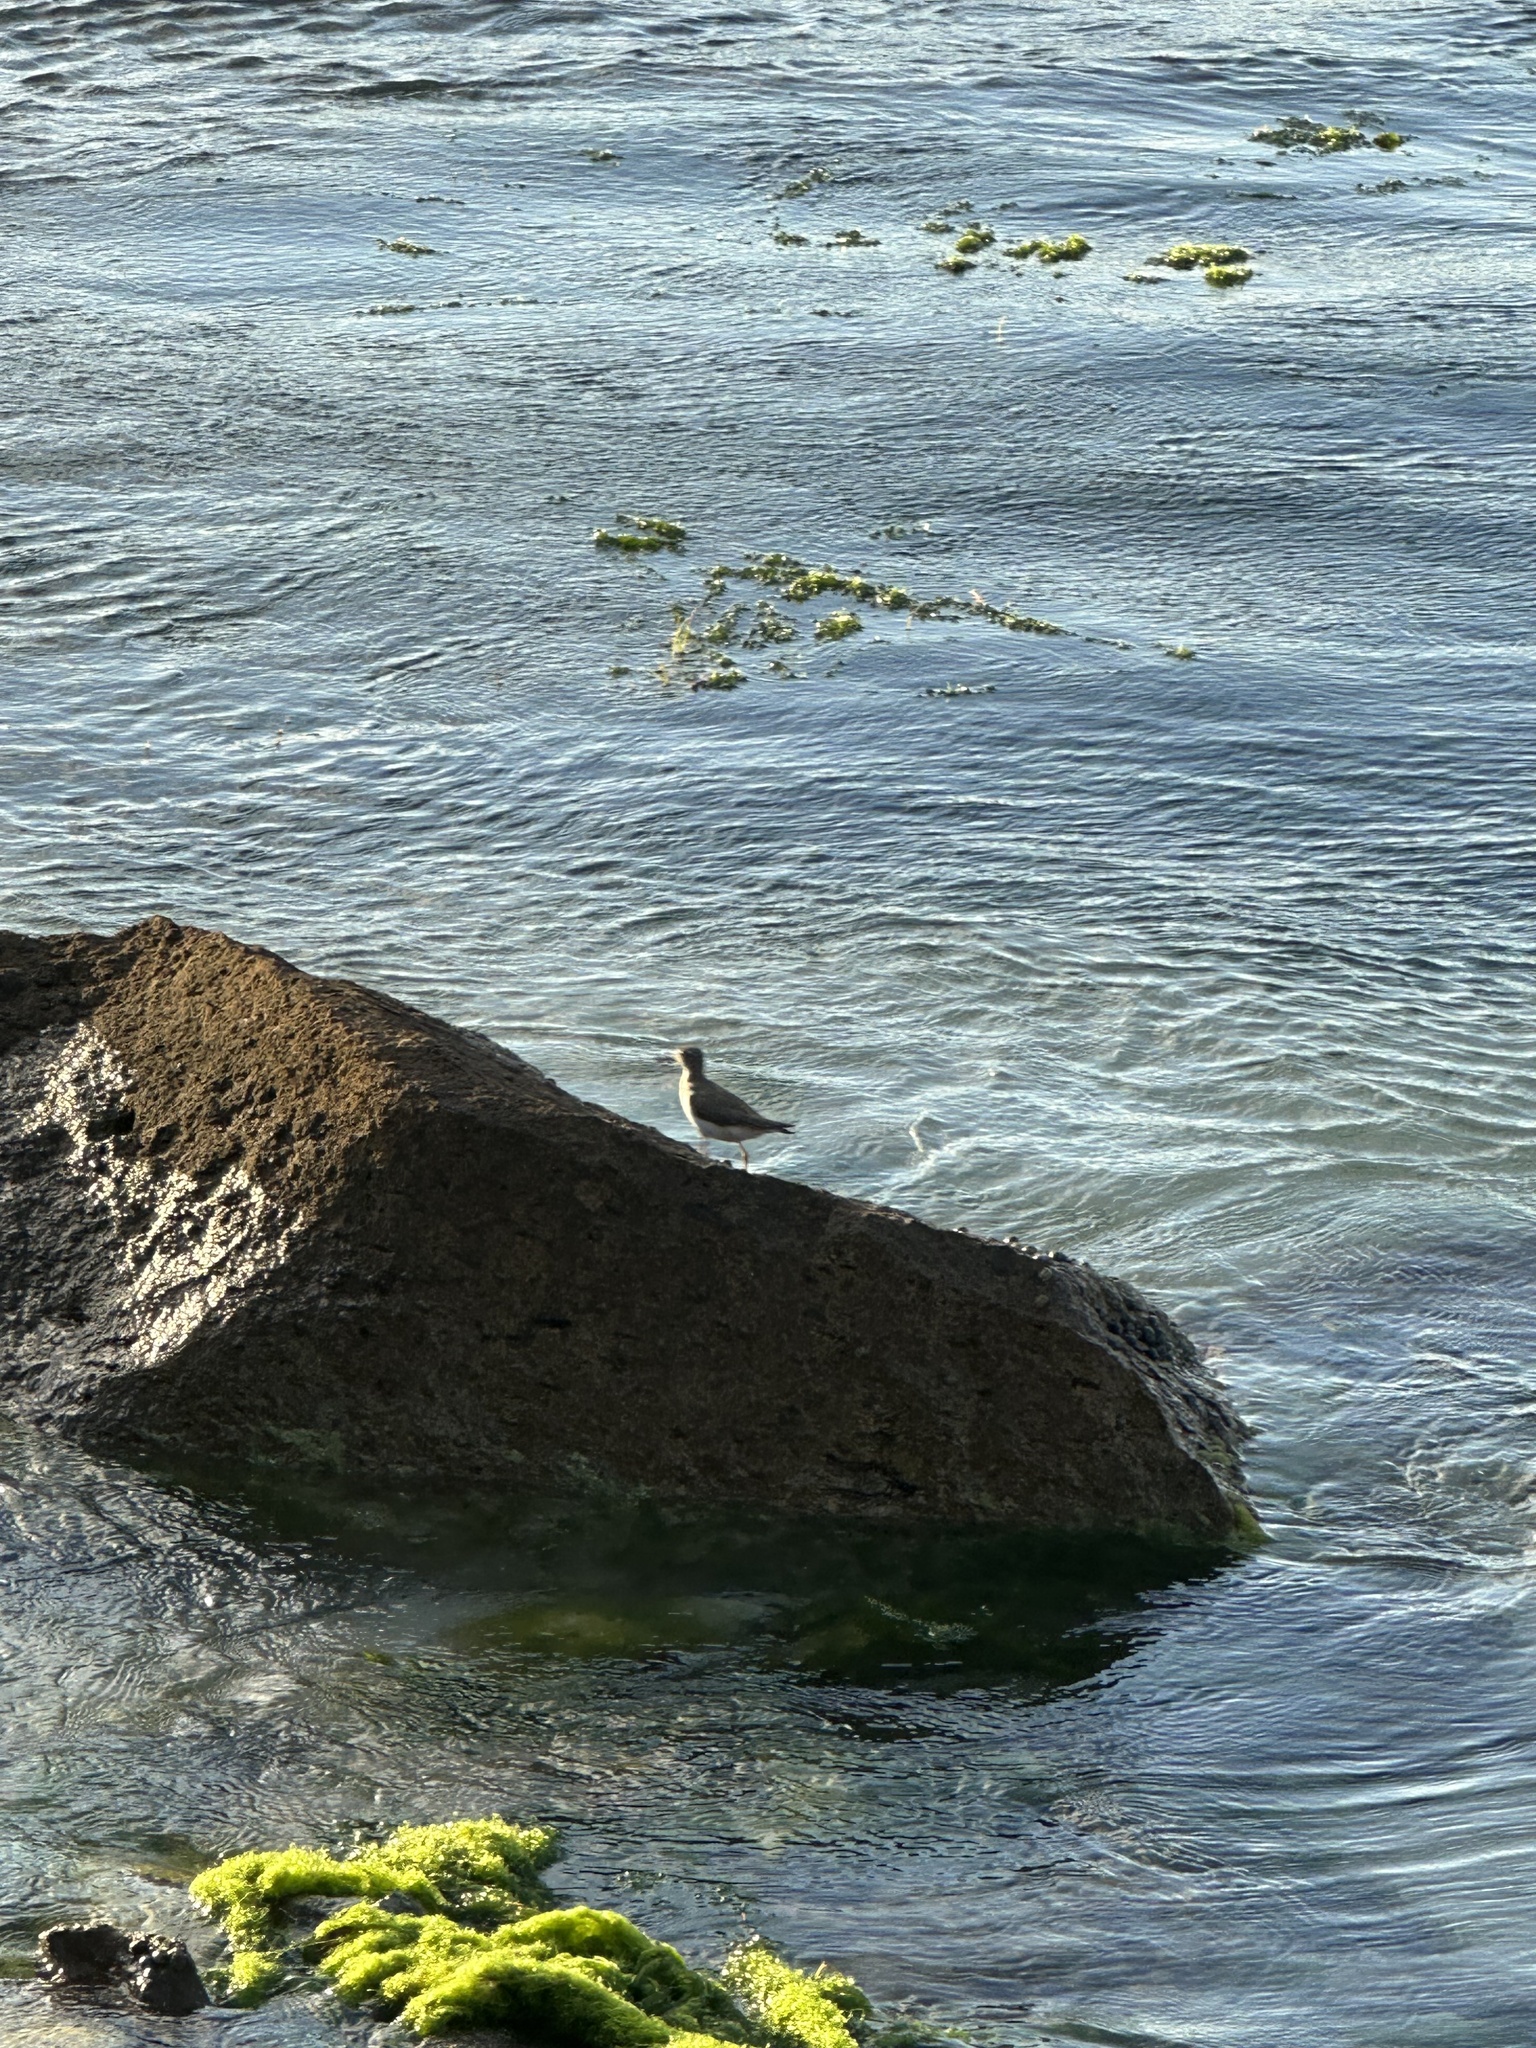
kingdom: Animalia
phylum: Chordata
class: Aves
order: Charadriiformes
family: Scolopacidae
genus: Actitis
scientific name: Actitis macularius
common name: Spotted sandpiper
